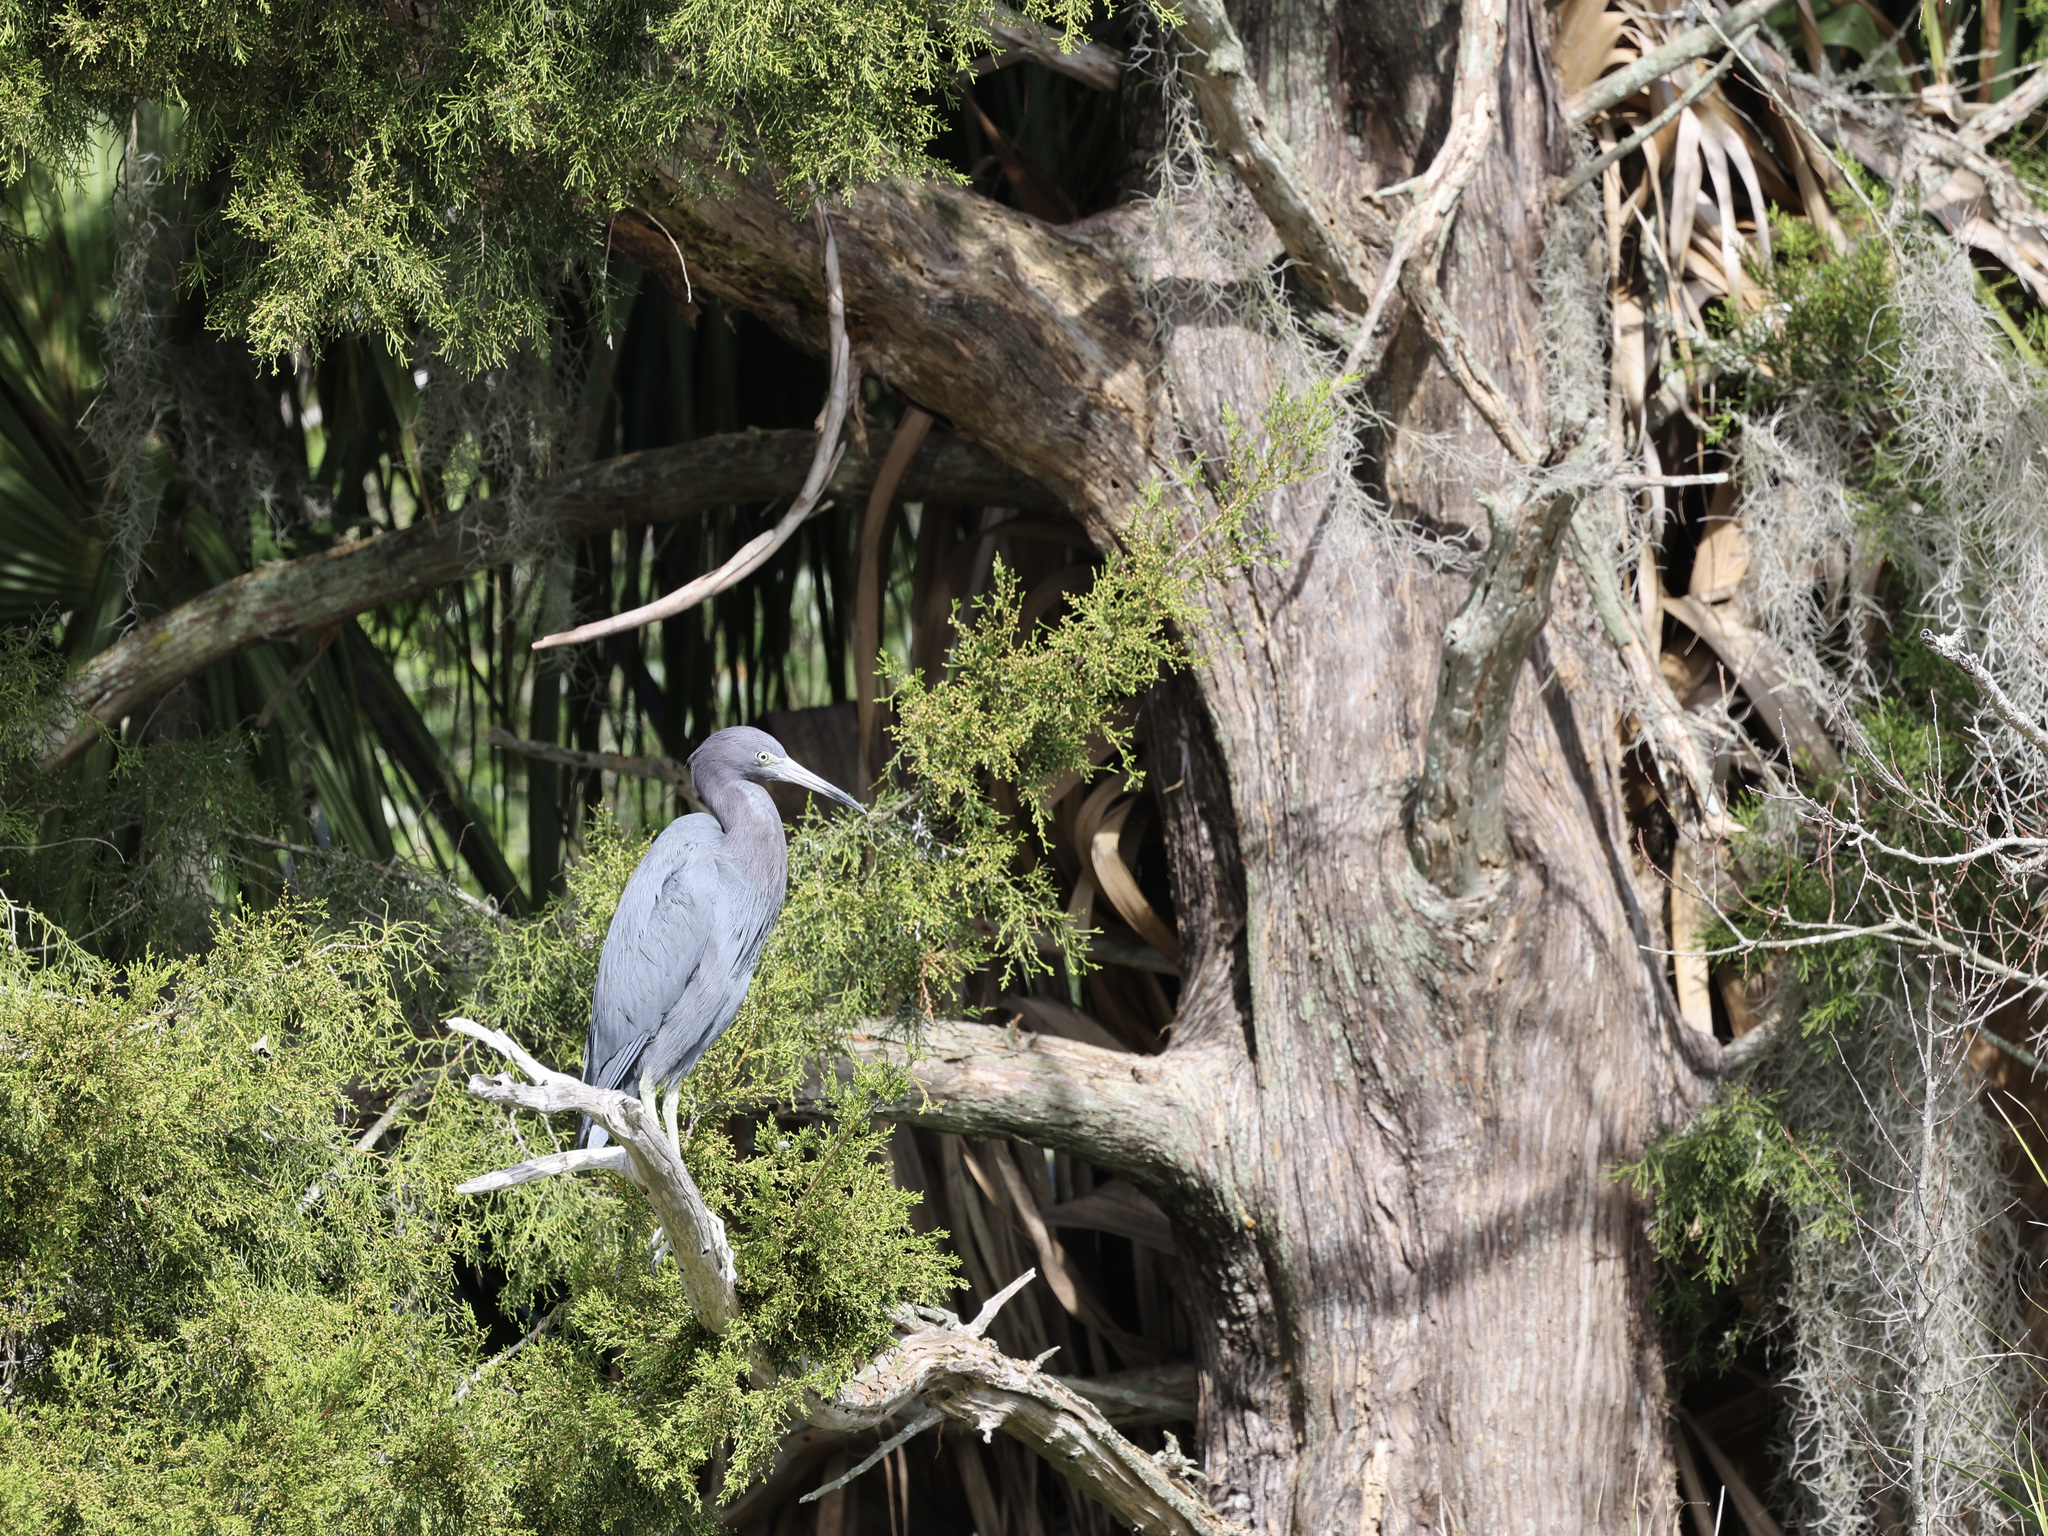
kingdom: Animalia
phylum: Chordata
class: Aves
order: Pelecaniformes
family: Ardeidae
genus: Egretta
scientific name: Egretta caerulea
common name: Little blue heron
